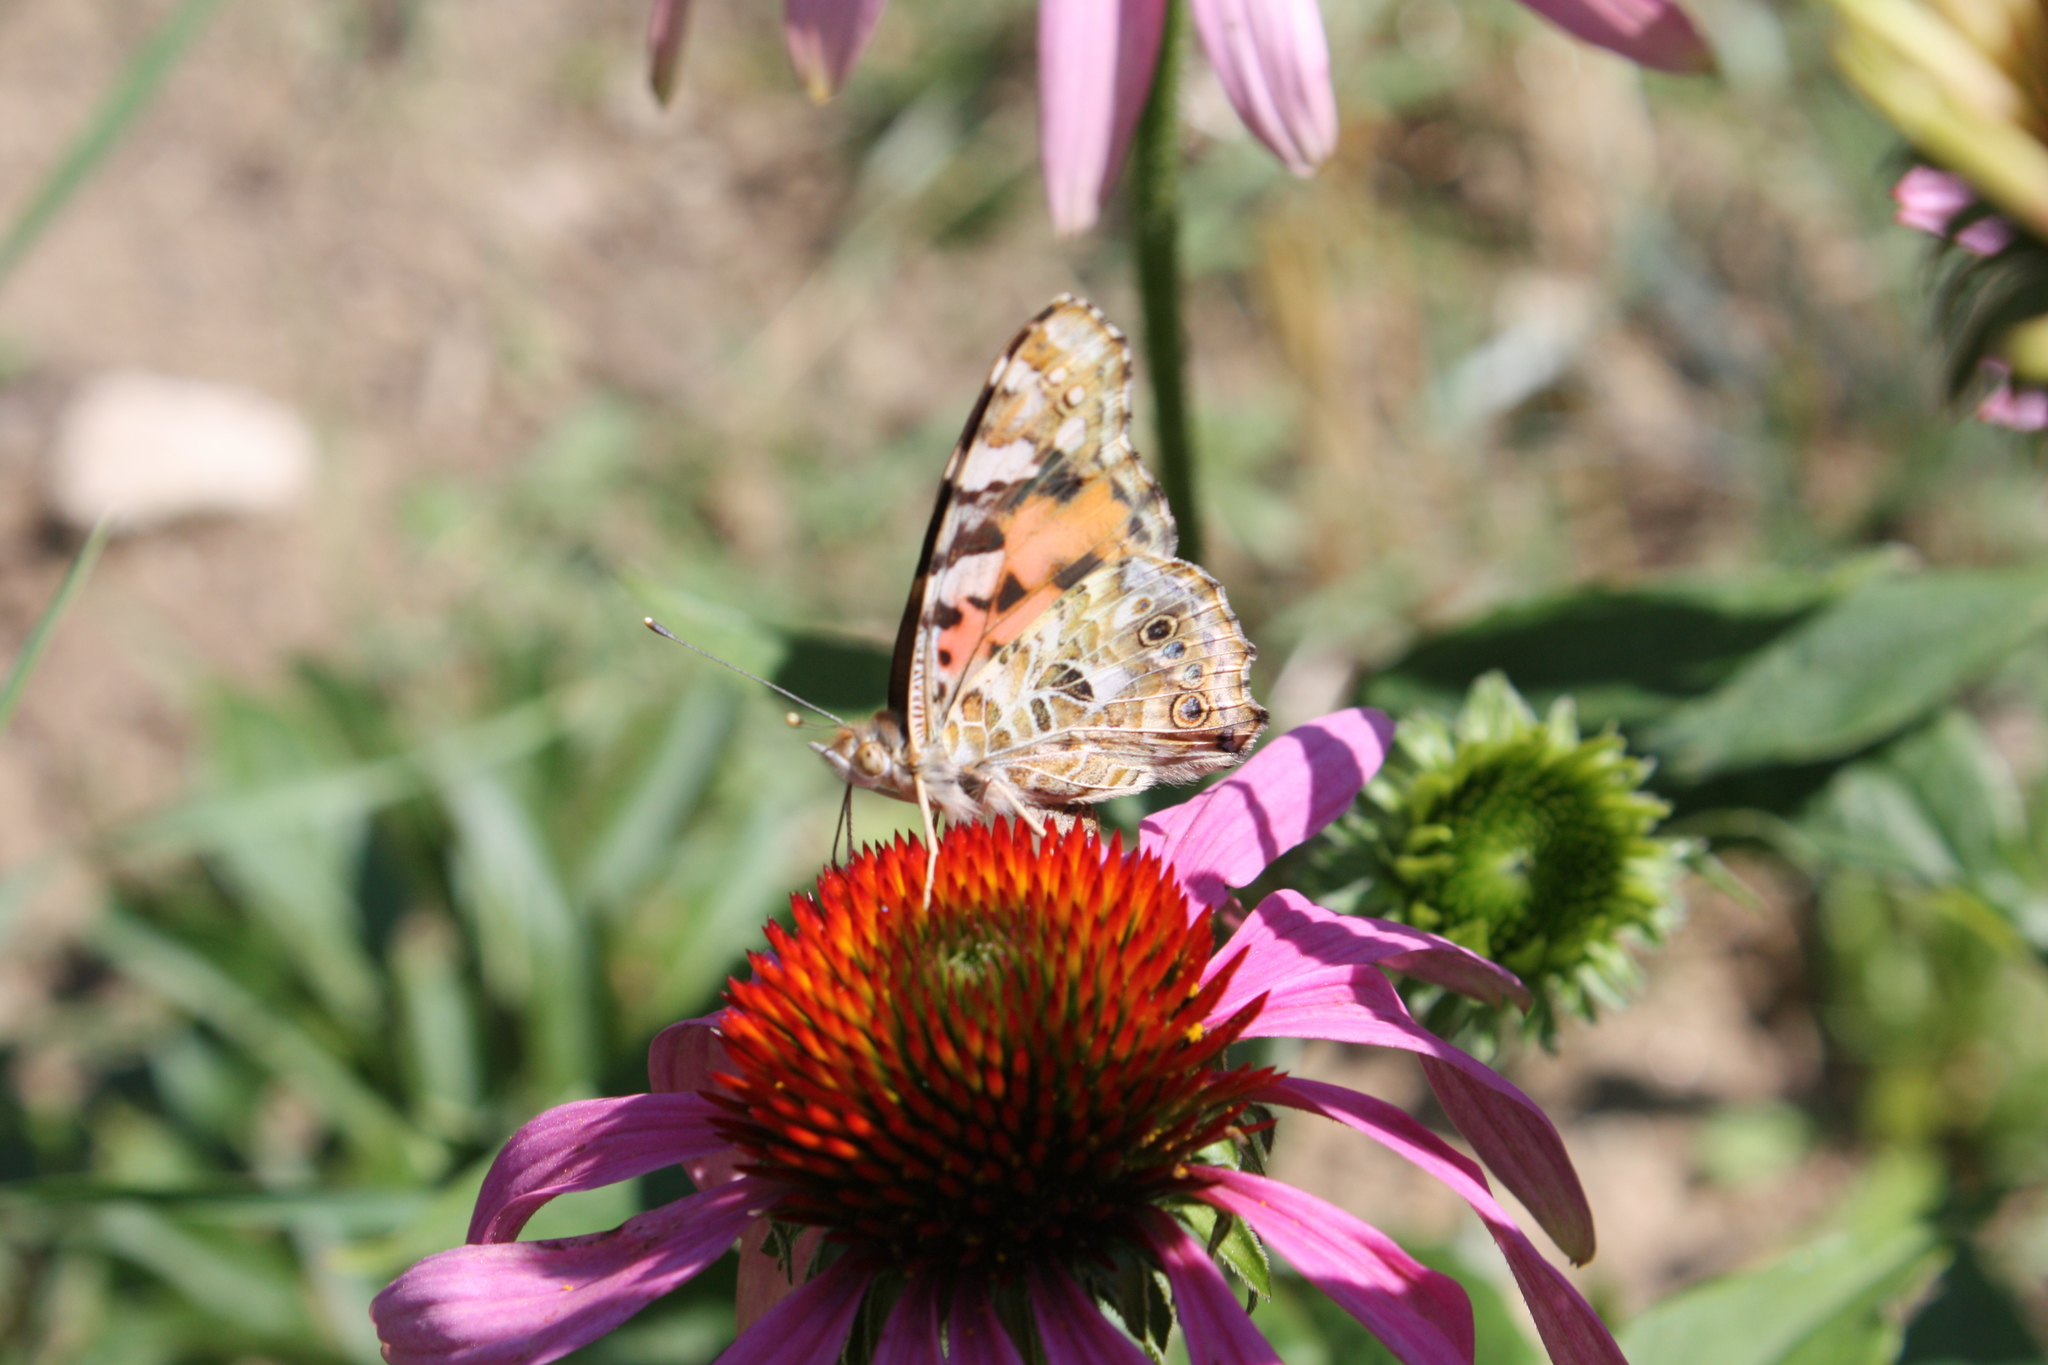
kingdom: Animalia
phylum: Arthropoda
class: Insecta
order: Lepidoptera
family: Nymphalidae
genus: Vanessa
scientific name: Vanessa cardui
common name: Painted lady
